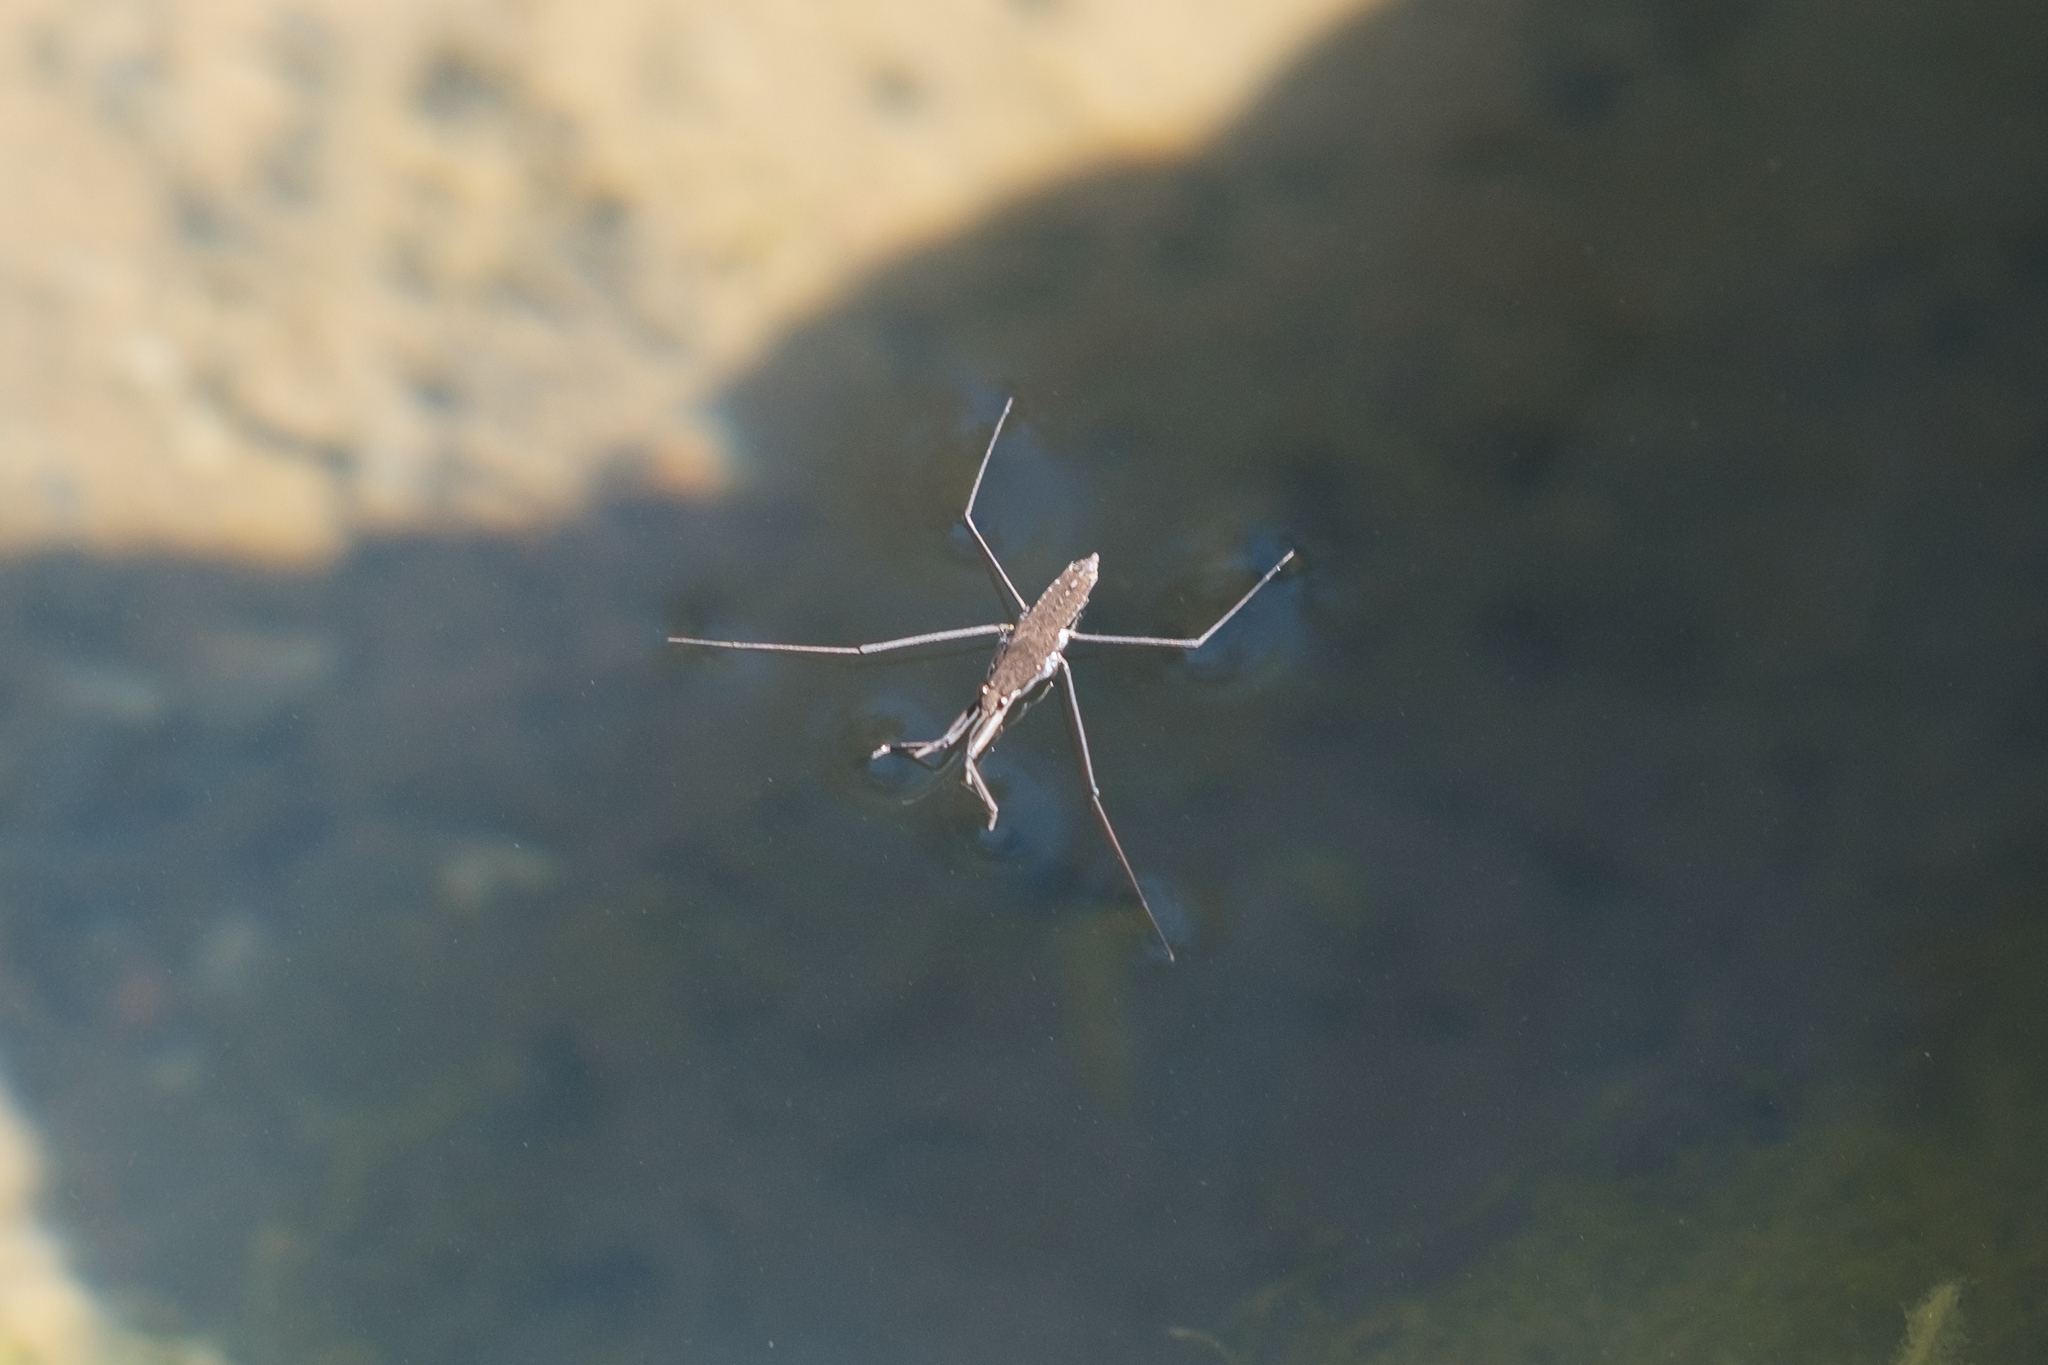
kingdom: Animalia
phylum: Arthropoda
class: Insecta
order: Hemiptera
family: Gerridae
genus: Aquarius
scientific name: Aquarius remigis
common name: Common water strider
